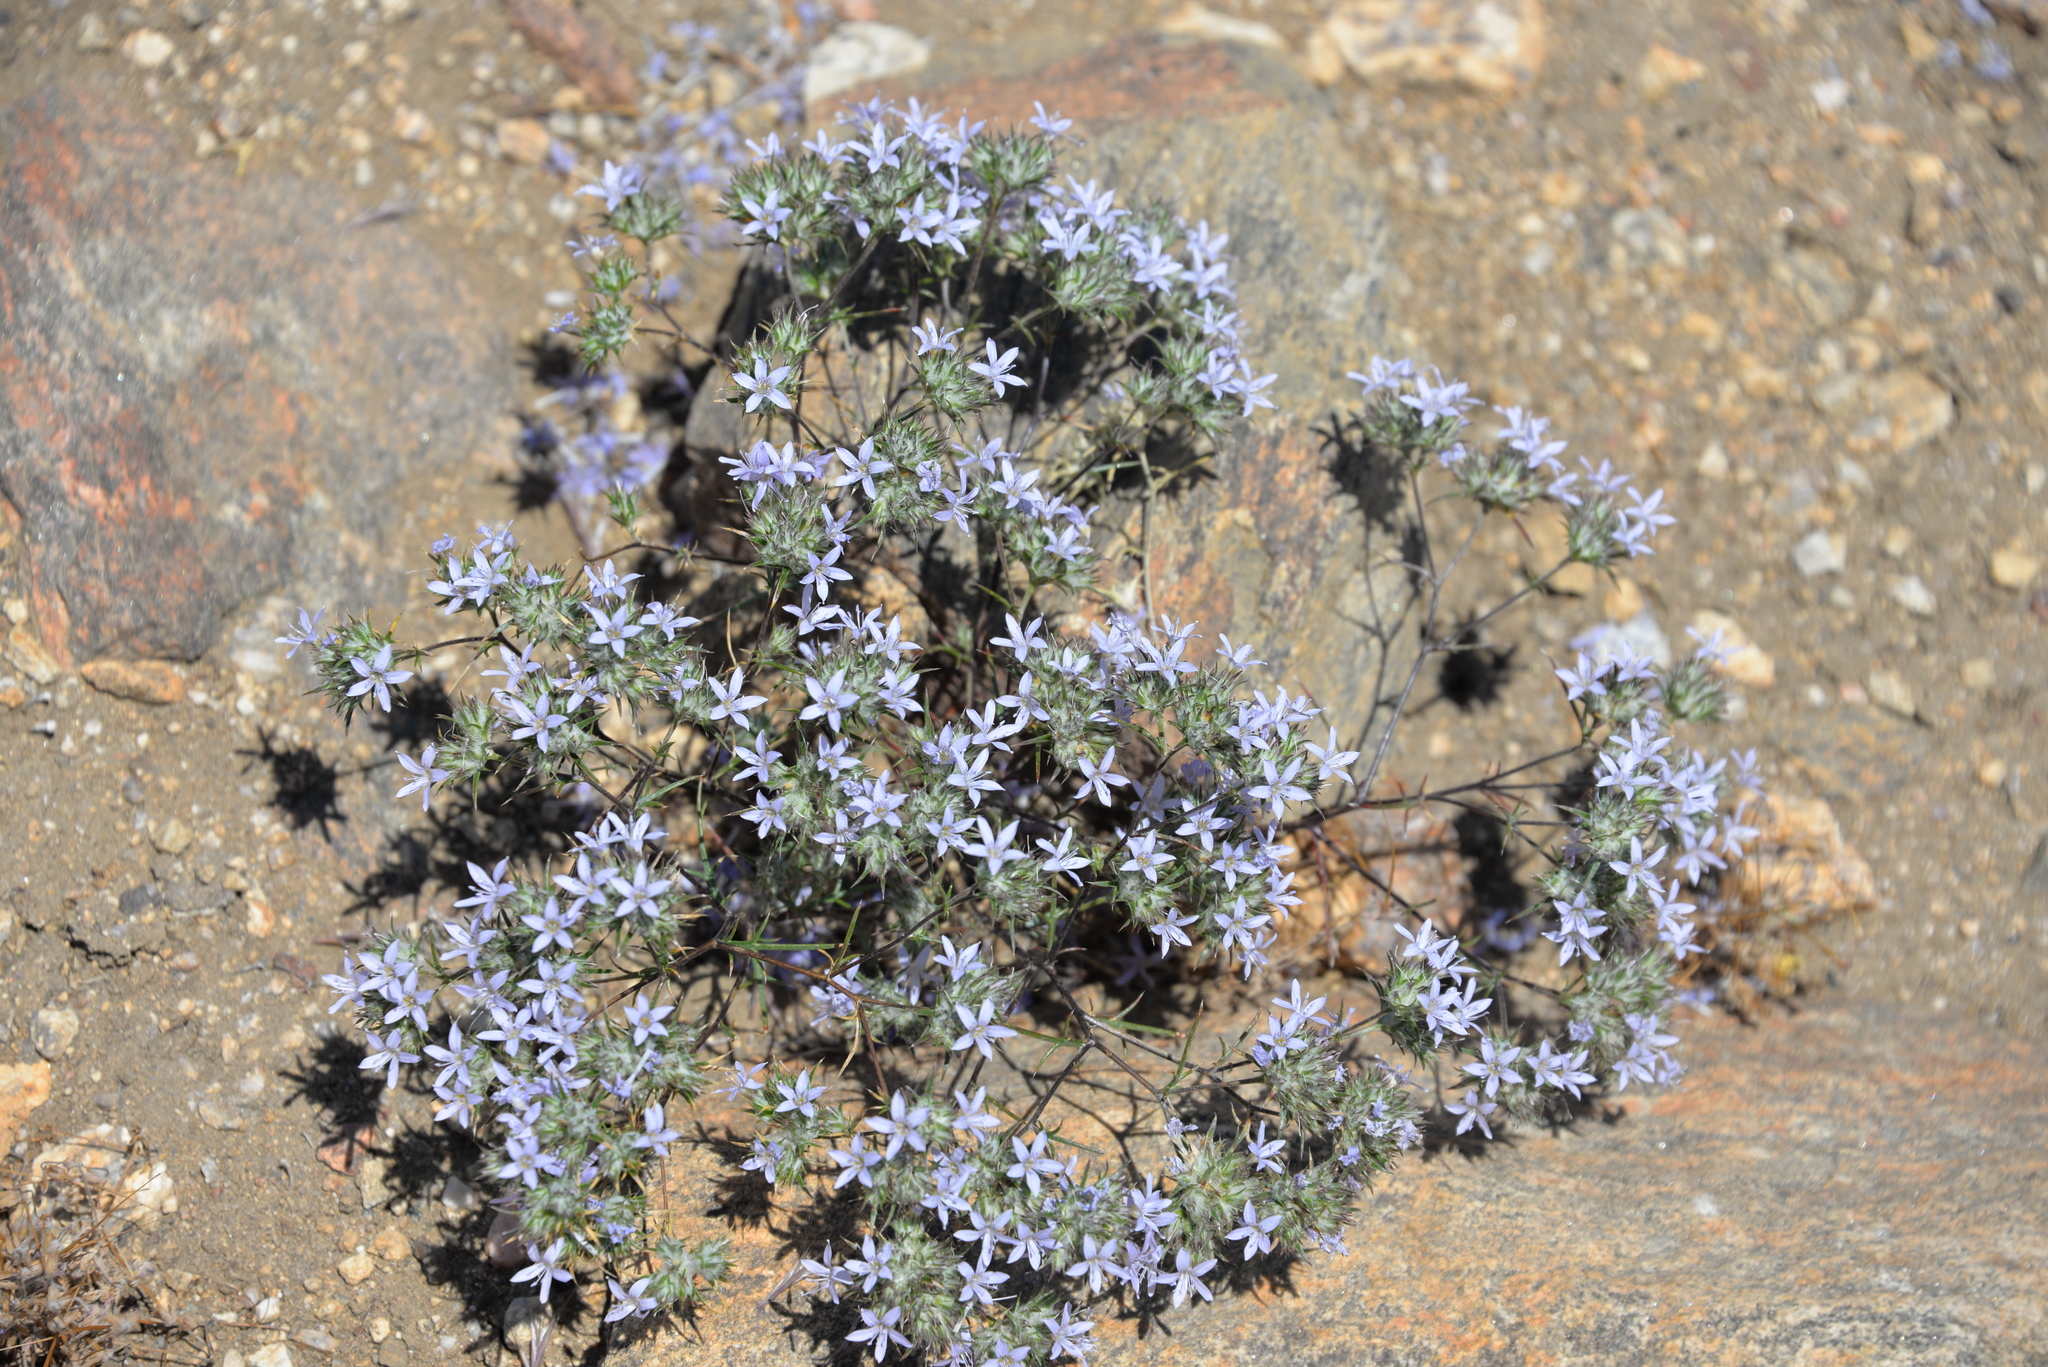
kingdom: Plantae
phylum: Tracheophyta
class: Magnoliopsida
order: Ericales
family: Polemoniaceae
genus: Eriastrum
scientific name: Eriastrum eremicum
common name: Desert eriastrum
